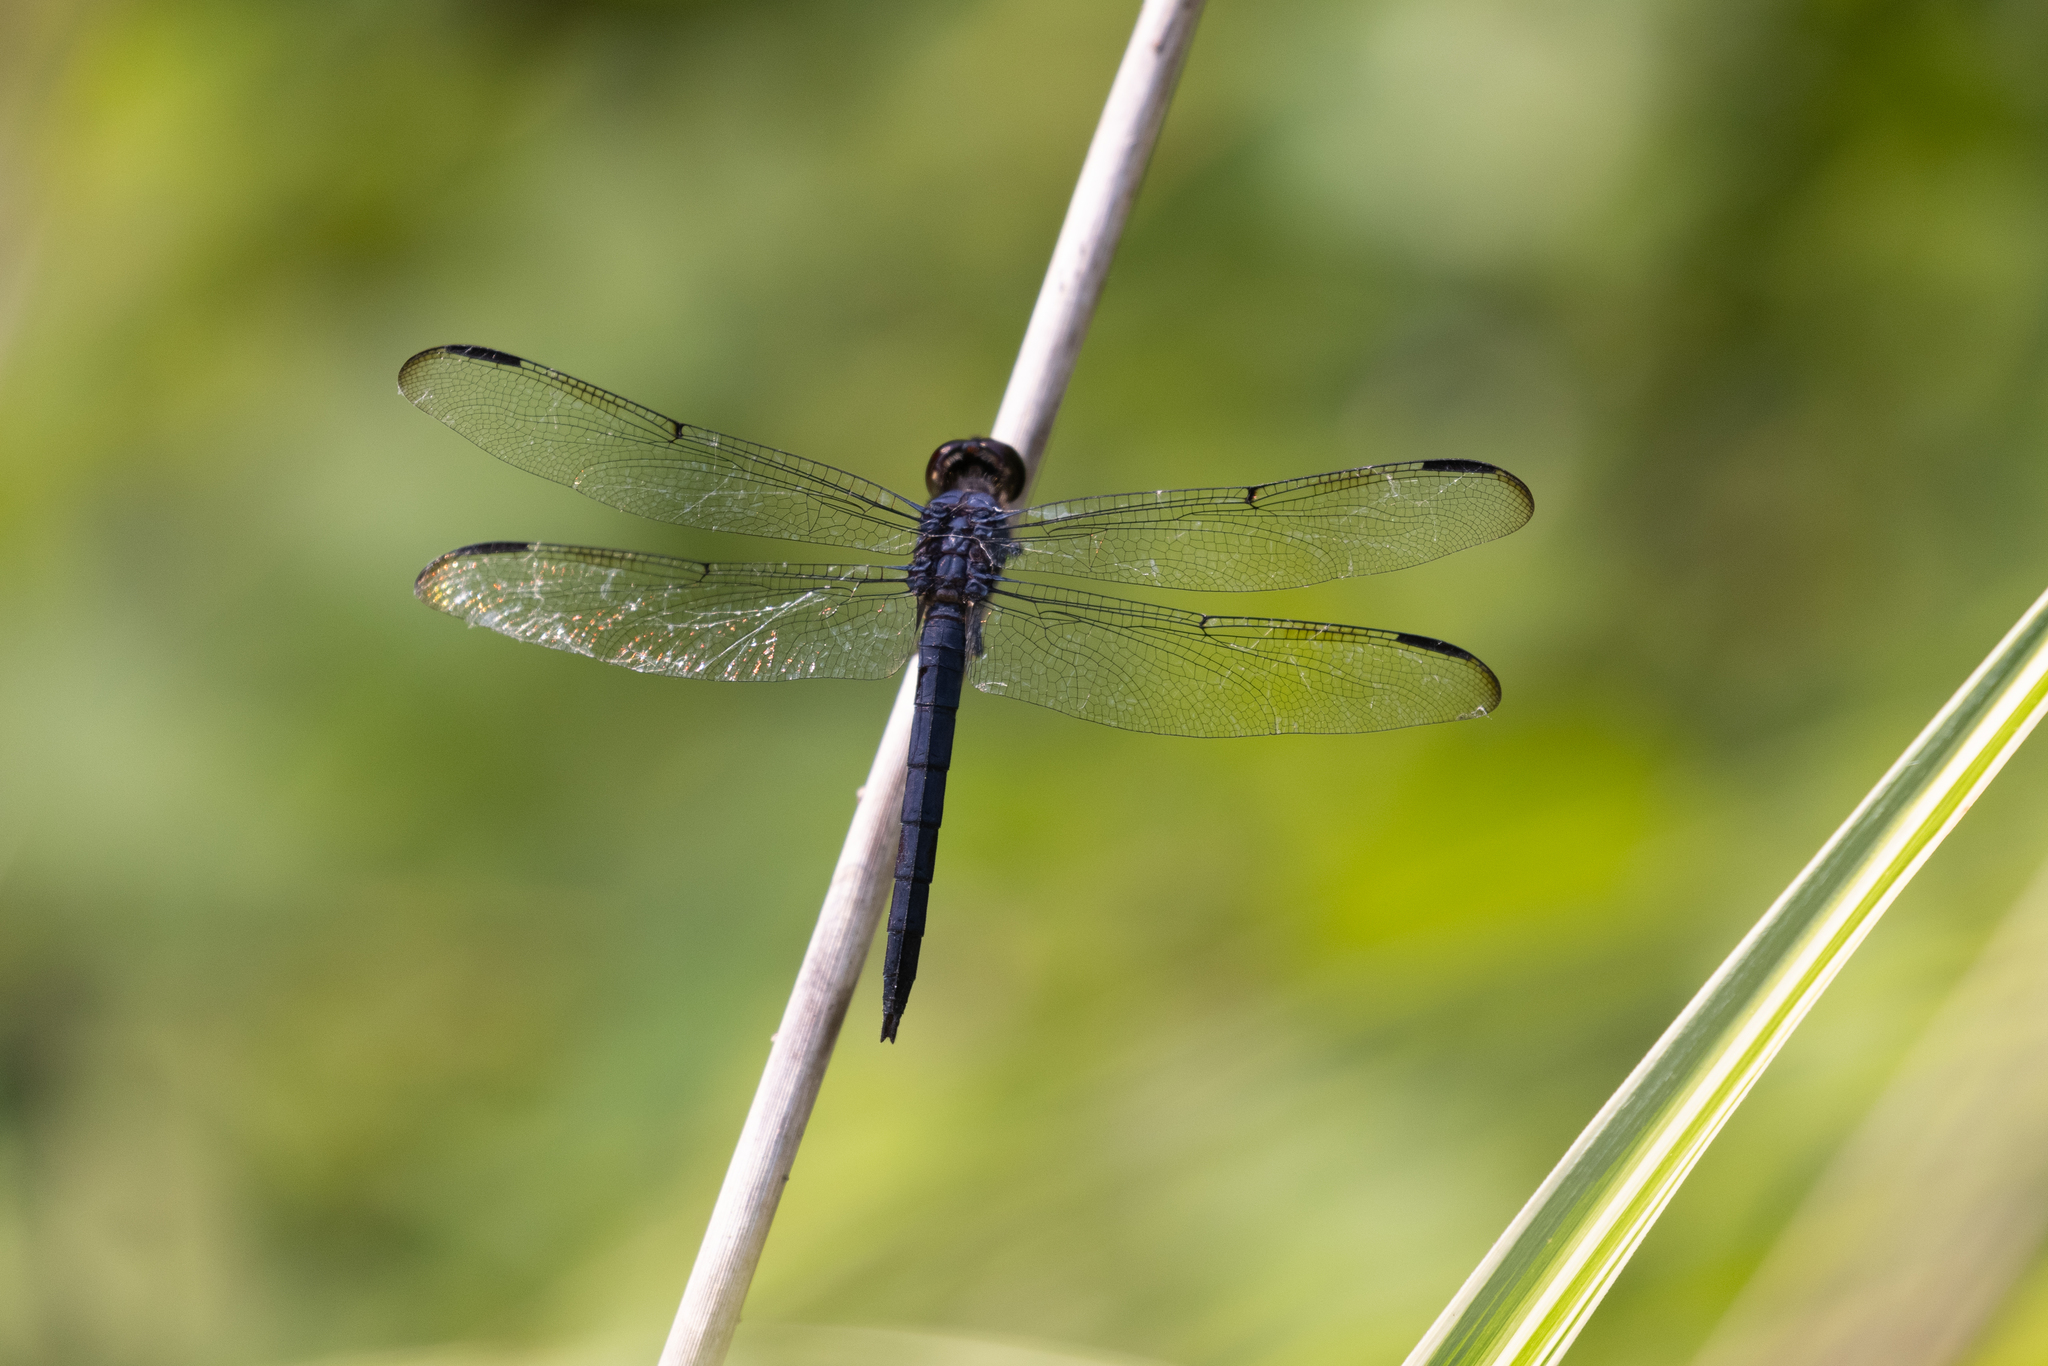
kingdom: Animalia
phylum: Arthropoda
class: Insecta
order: Odonata
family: Libellulidae
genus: Libellula
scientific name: Libellula incesta
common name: Slaty skimmer
